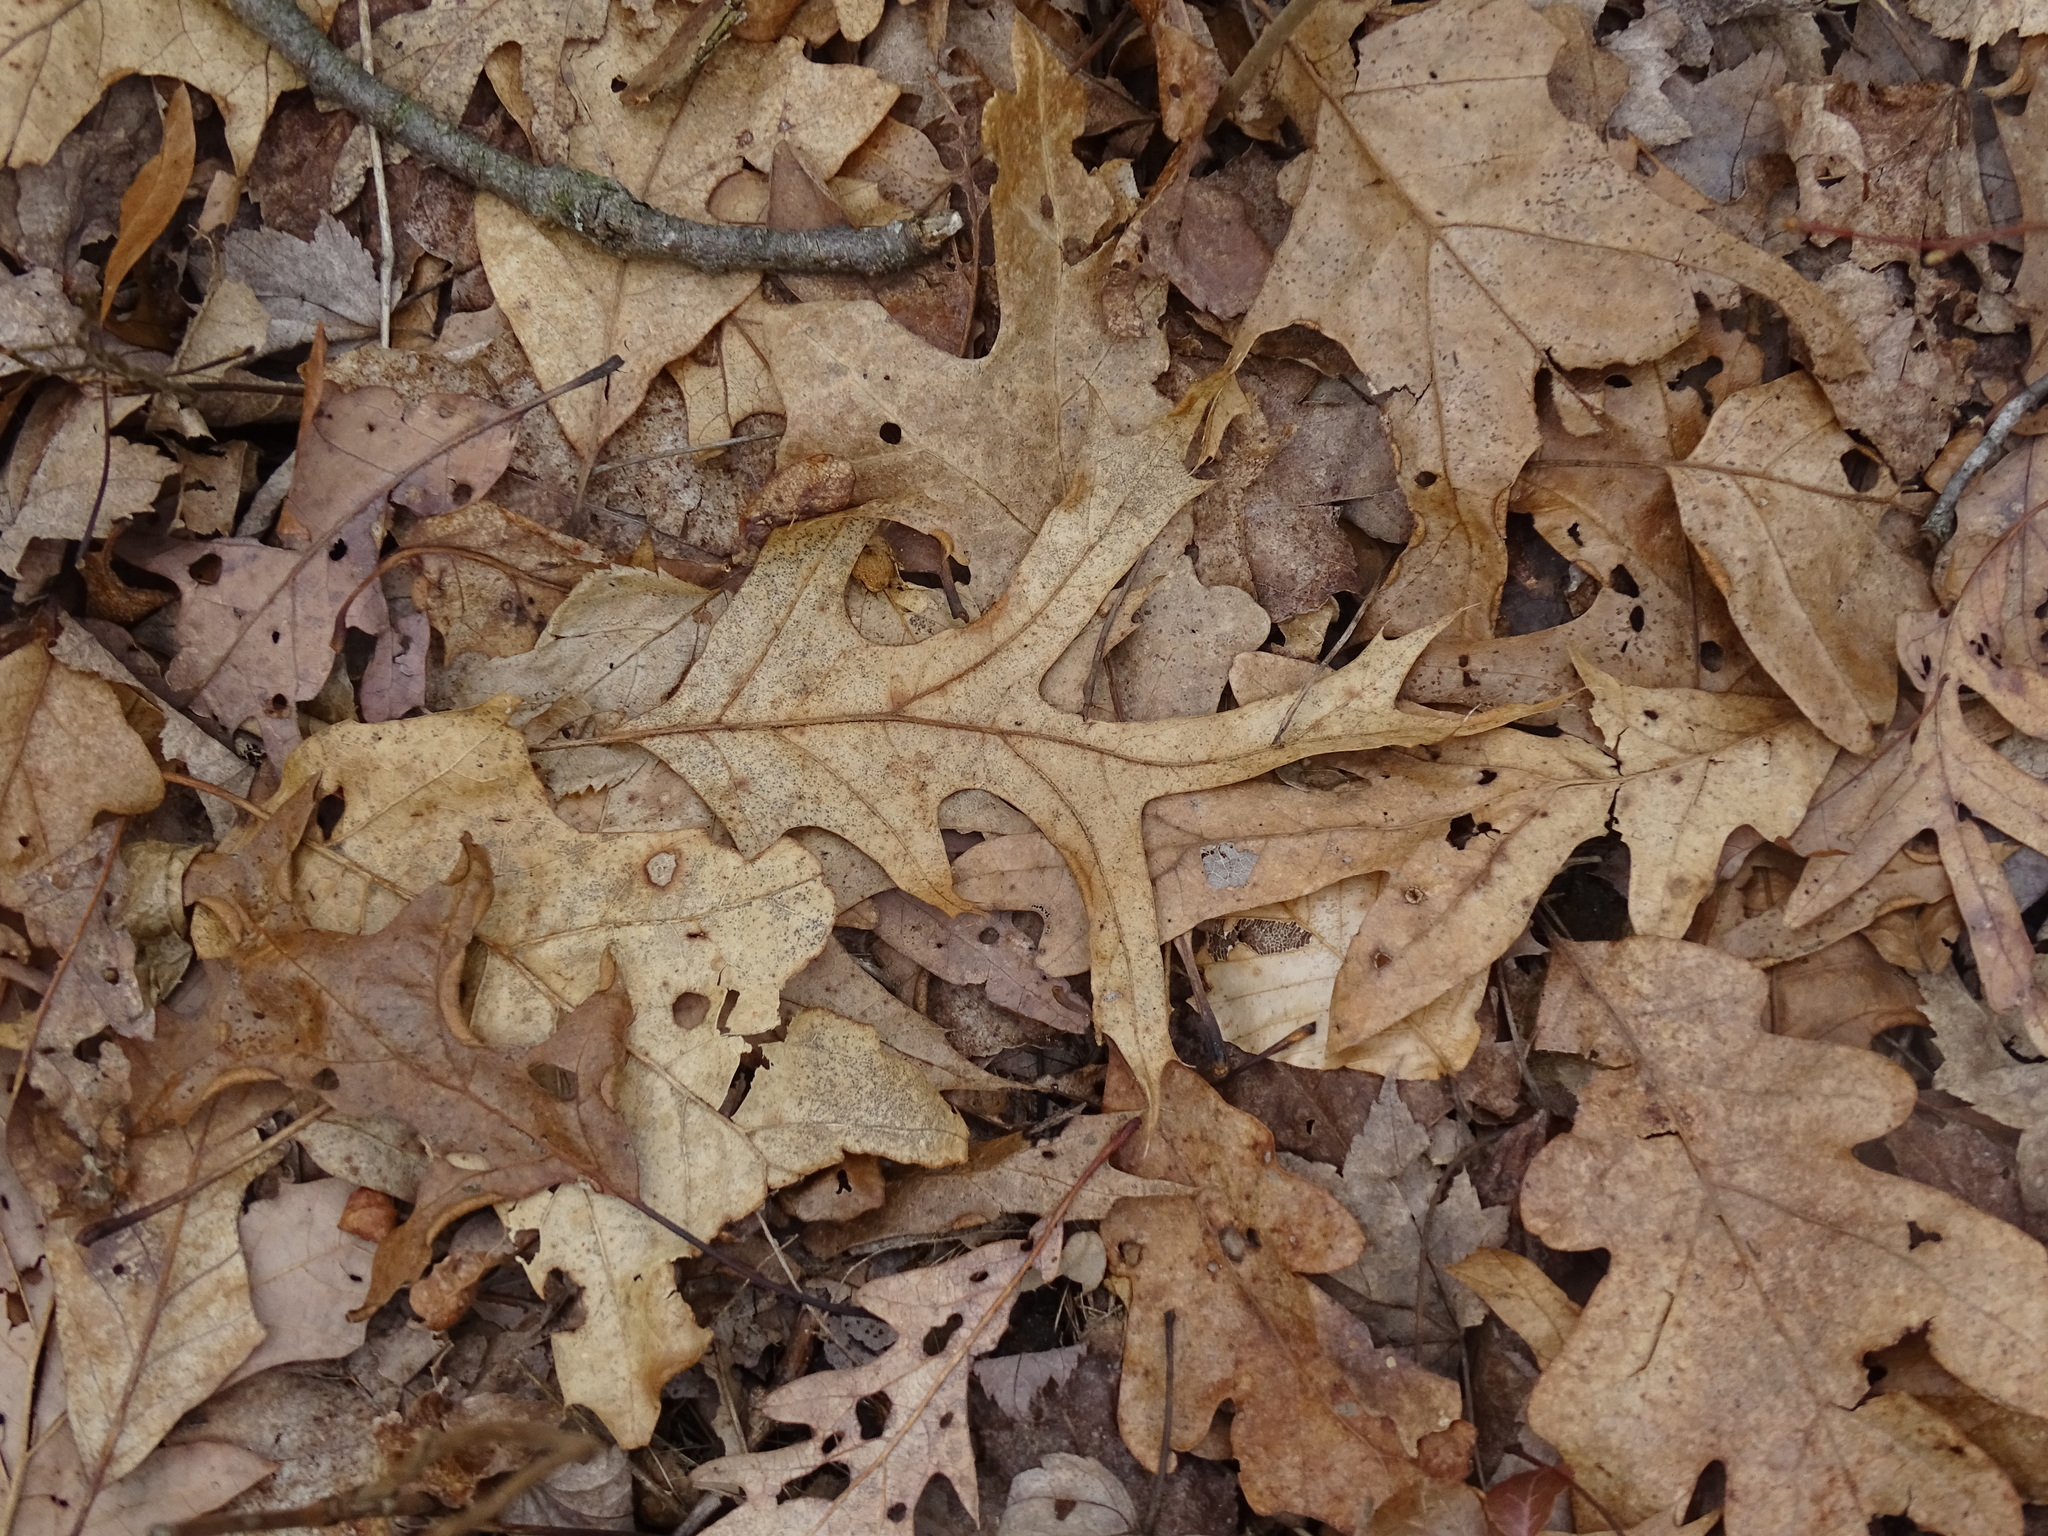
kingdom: Plantae
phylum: Tracheophyta
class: Magnoliopsida
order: Fagales
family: Fagaceae
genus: Quercus
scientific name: Quercus velutina
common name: Black oak
